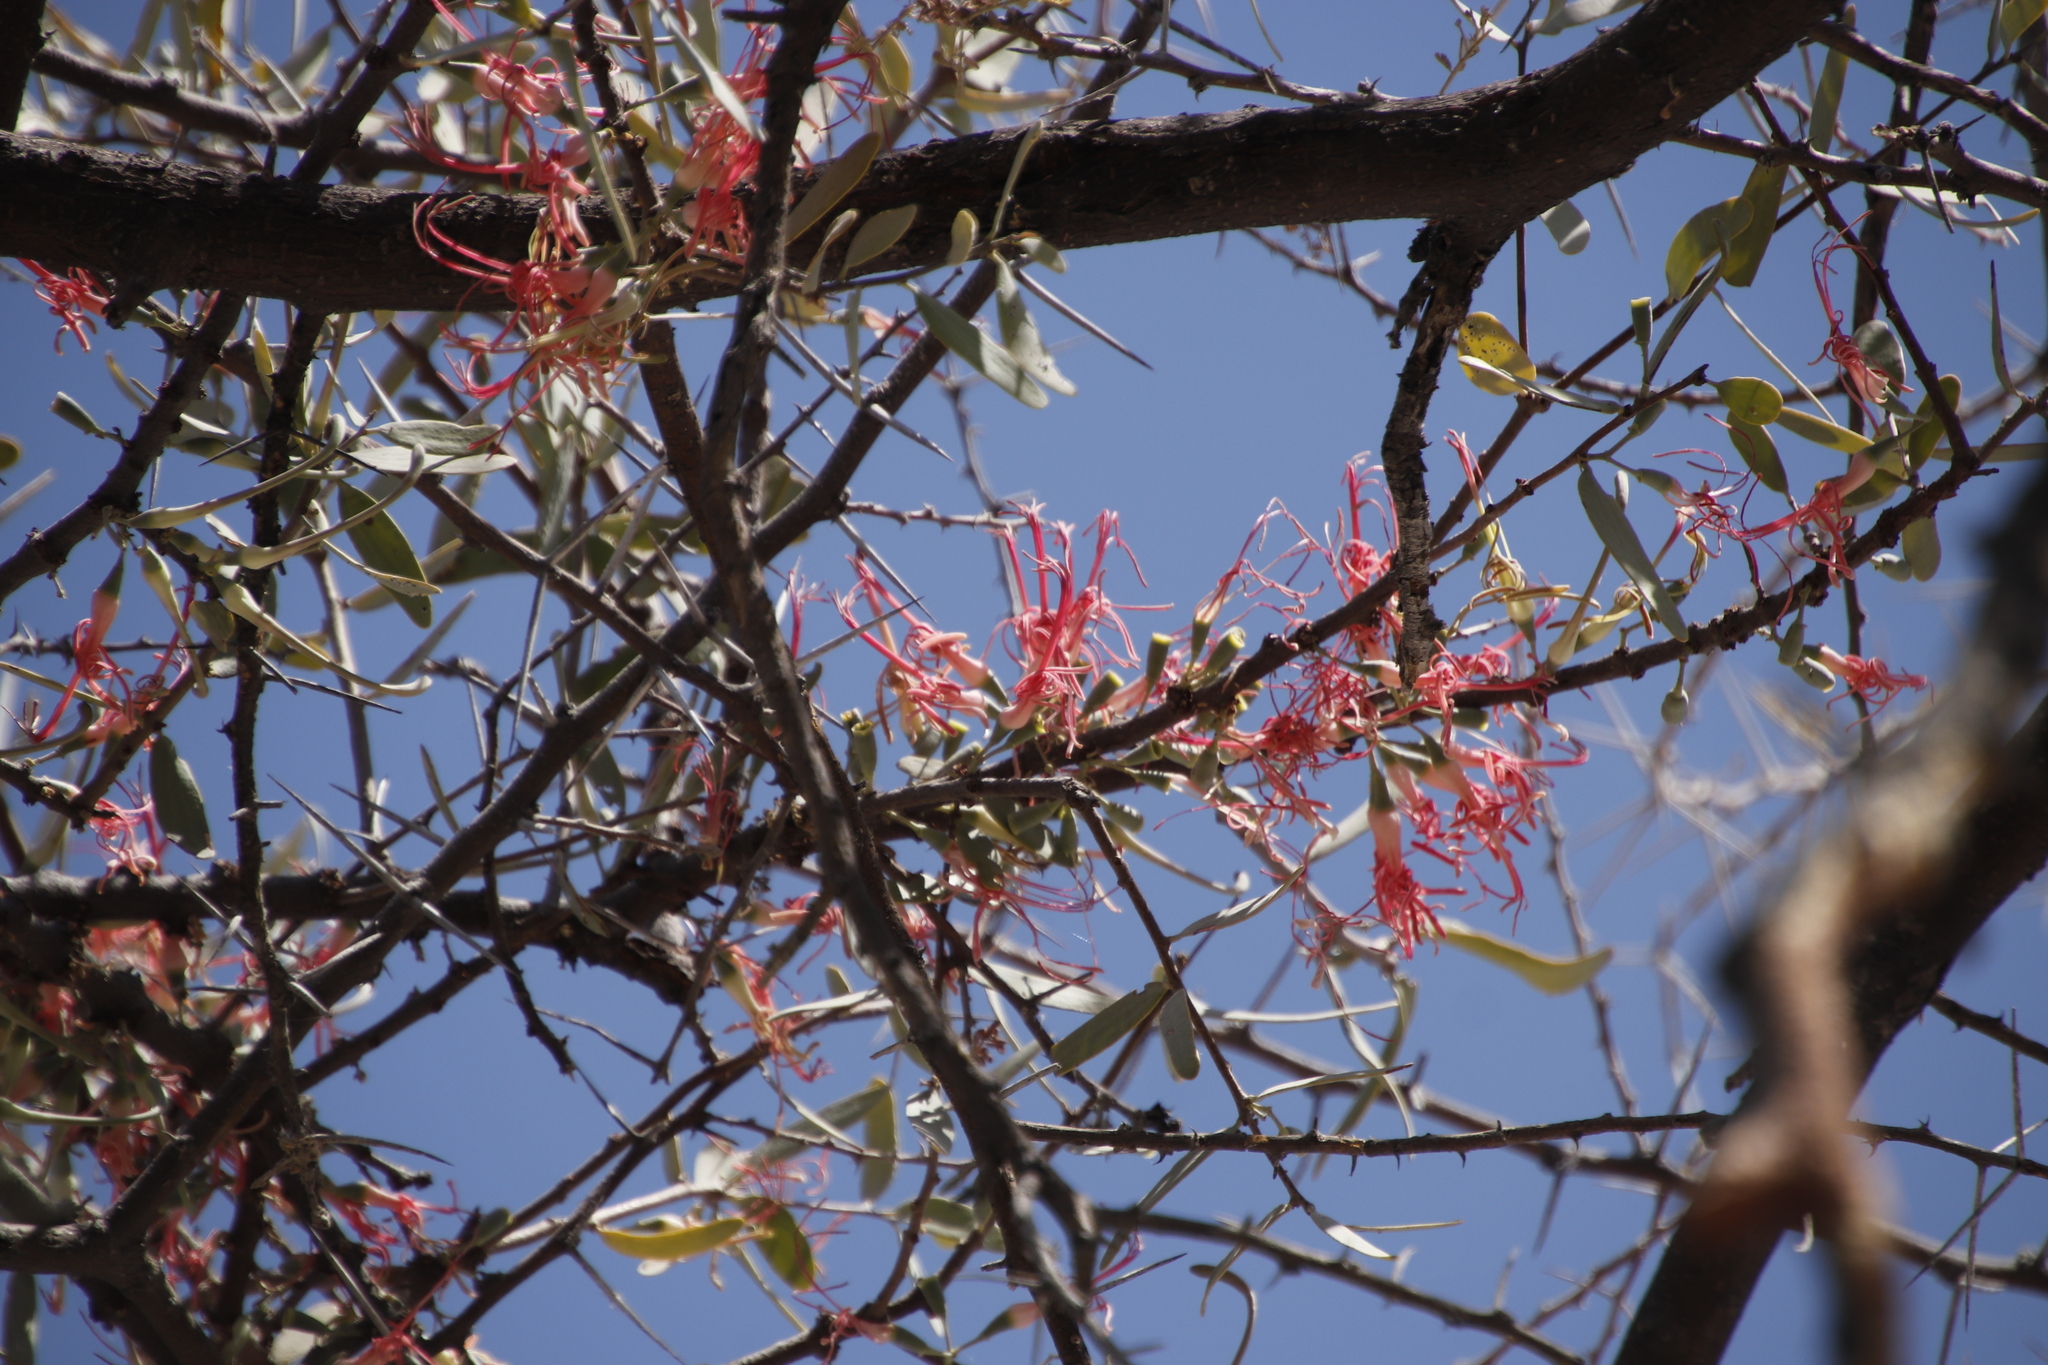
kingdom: Plantae
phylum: Tracheophyta
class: Magnoliopsida
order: Santalales
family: Loranthaceae
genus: Plicosepalus
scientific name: Plicosepalus kalachariensis
